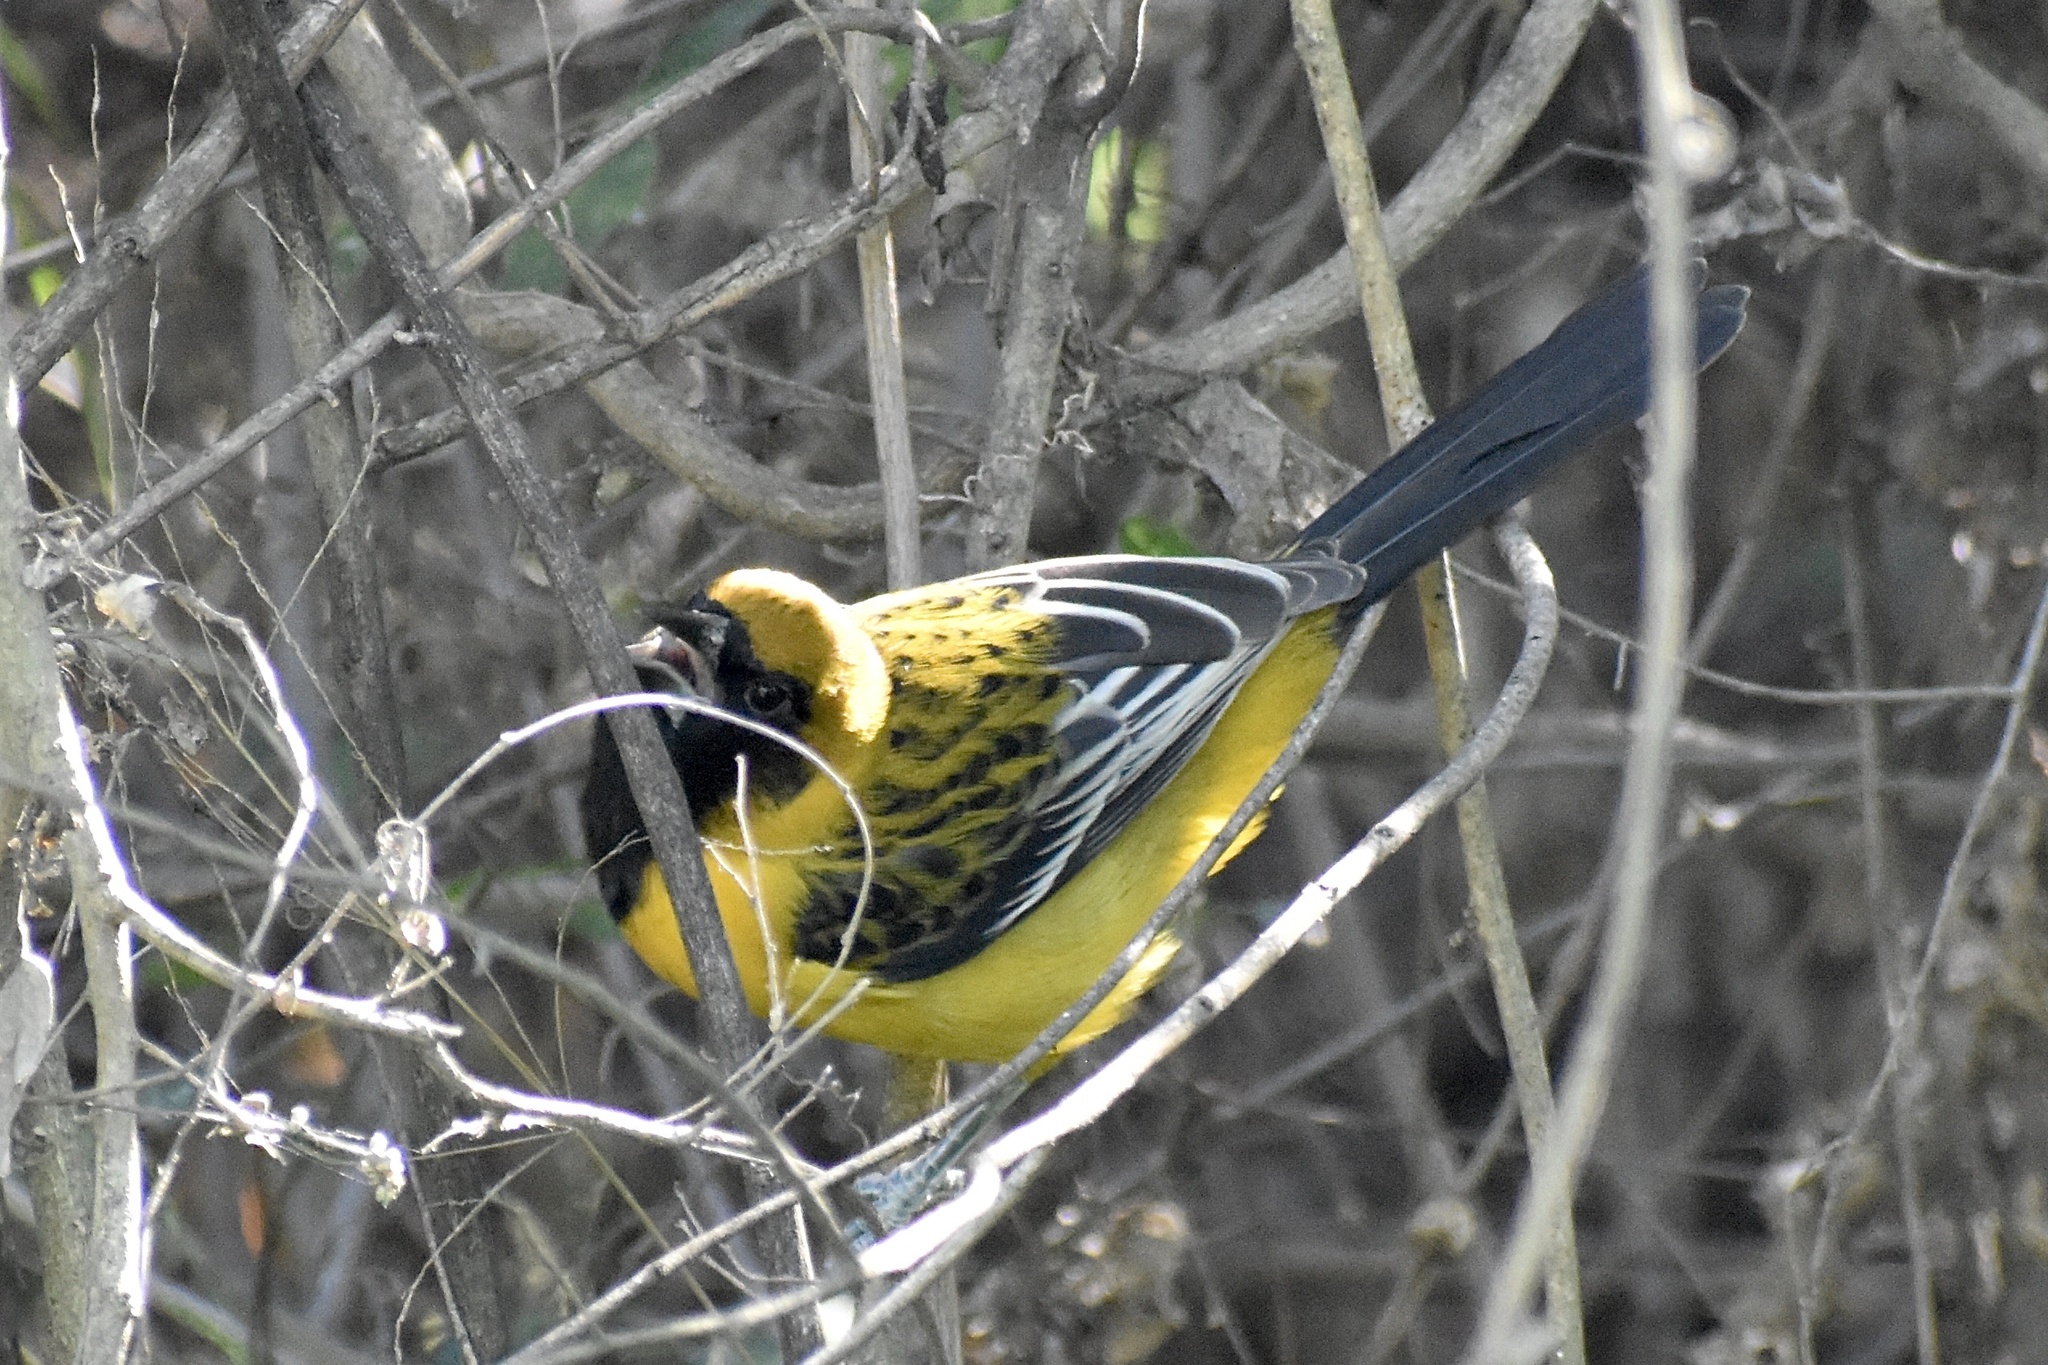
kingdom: Animalia
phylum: Chordata
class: Aves
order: Passeriformes
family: Icteridae
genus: Icterus
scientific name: Icterus
